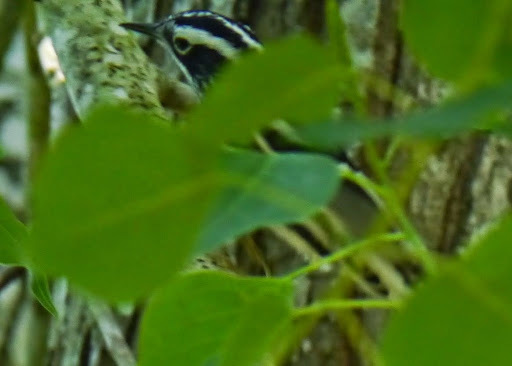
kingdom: Animalia
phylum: Chordata
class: Aves
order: Passeriformes
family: Parulidae
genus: Mniotilta
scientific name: Mniotilta varia
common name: Black-and-white warbler
